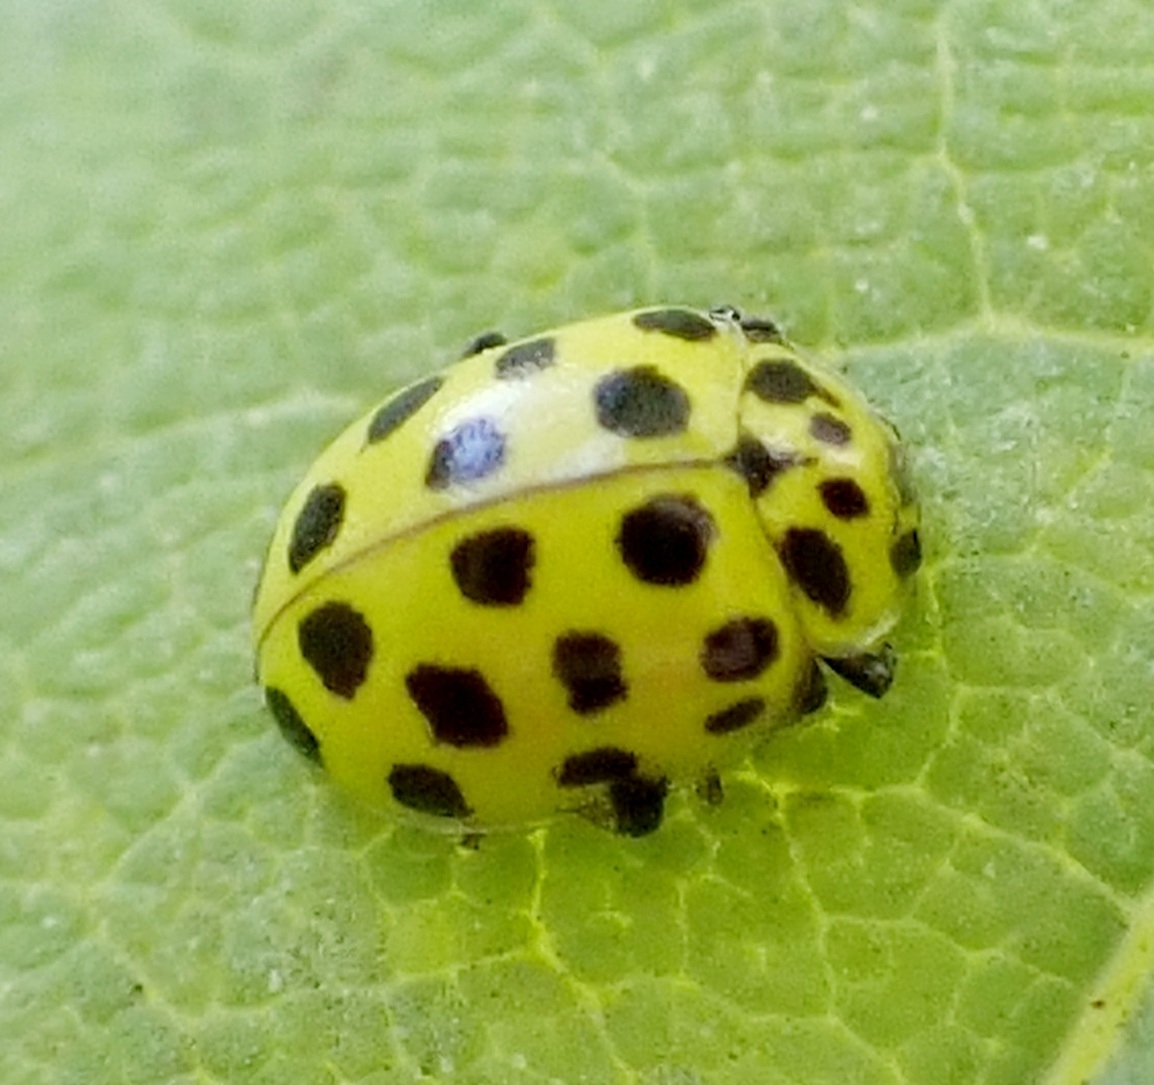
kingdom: Animalia
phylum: Arthropoda
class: Insecta
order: Coleoptera
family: Coccinellidae
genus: Psyllobora
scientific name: Psyllobora vigintiduopunctata
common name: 22-spot ladybird
